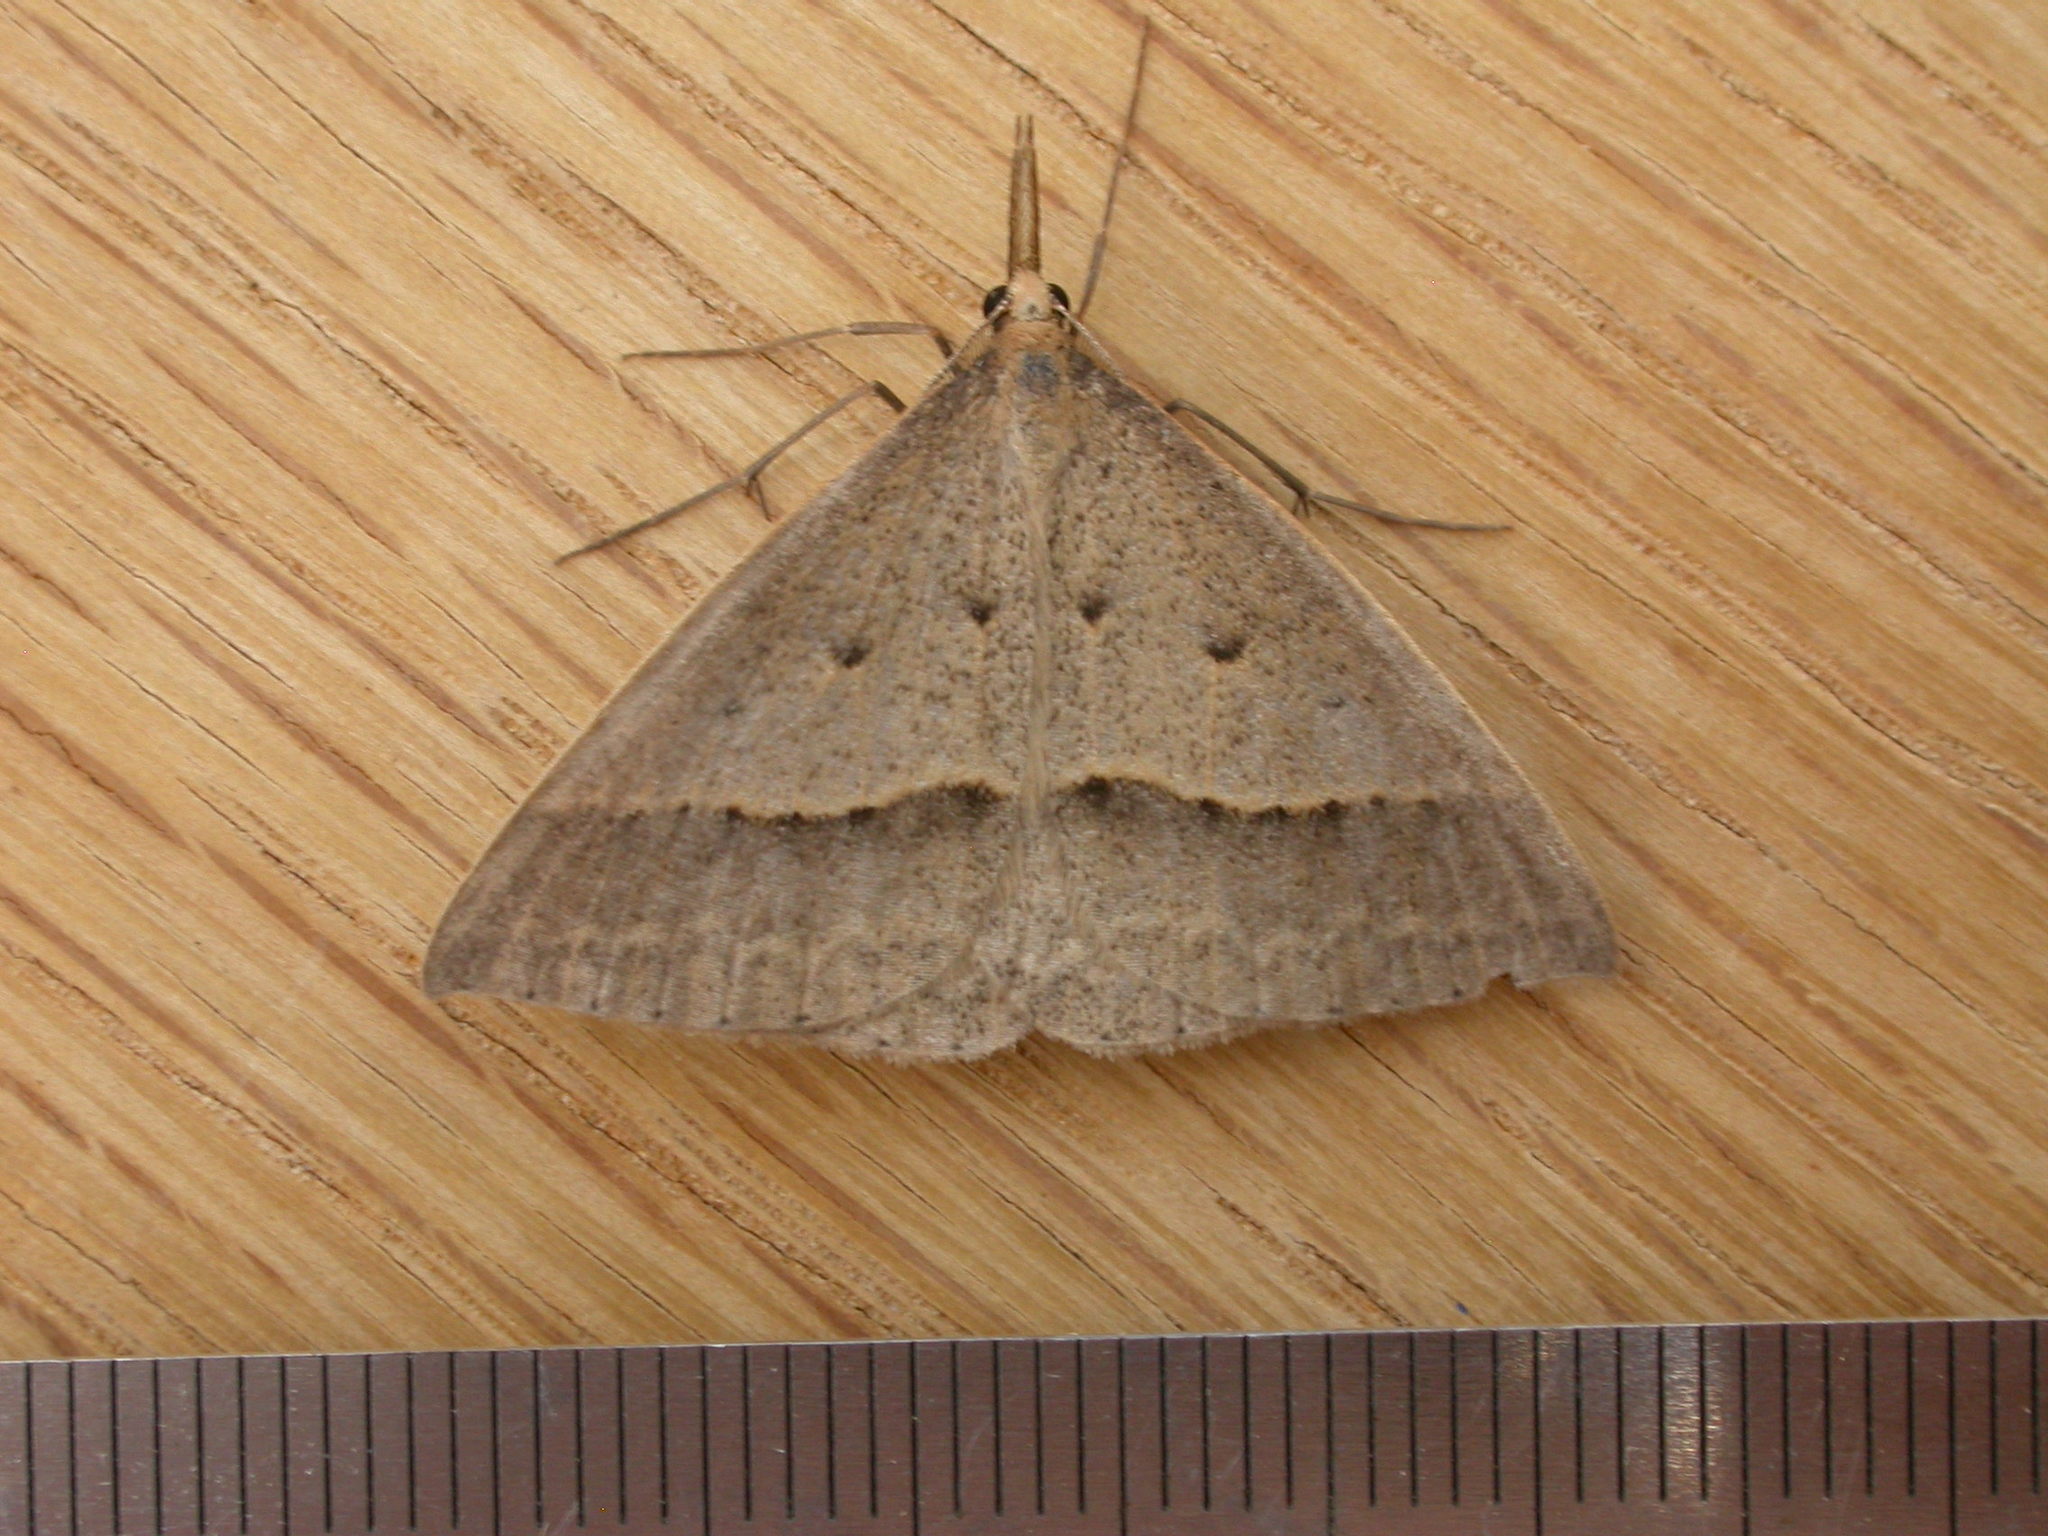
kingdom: Animalia
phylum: Arthropoda
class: Insecta
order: Lepidoptera
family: Geometridae
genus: Epidesmia
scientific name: Epidesmia hypenaria
